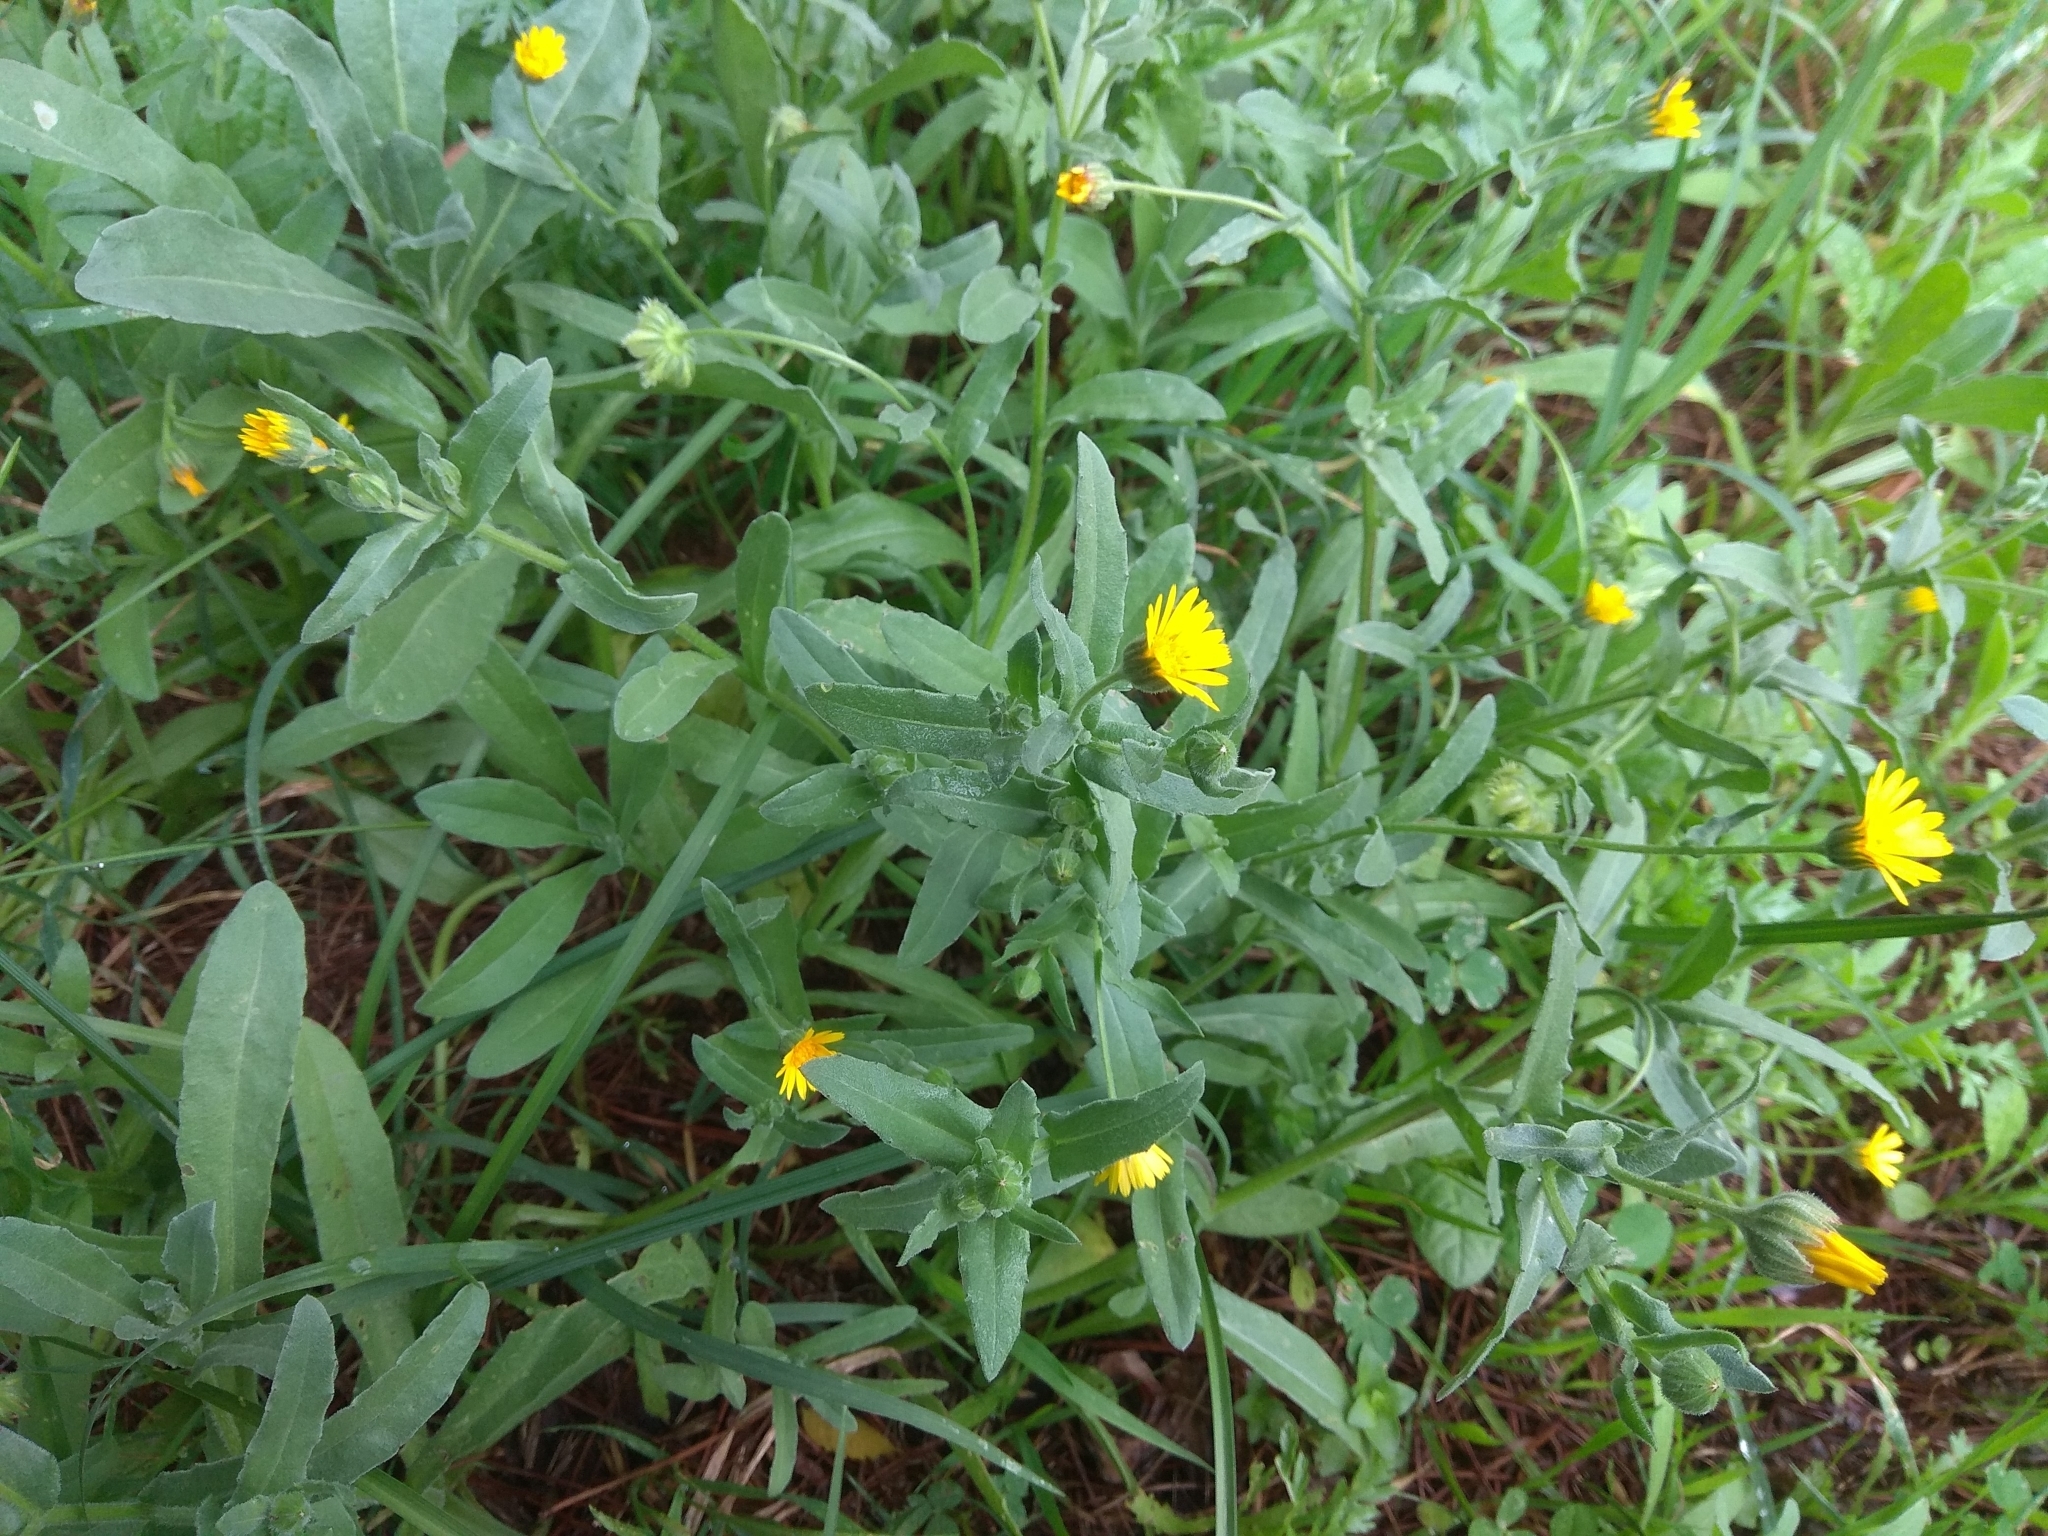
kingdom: Plantae
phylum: Tracheophyta
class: Magnoliopsida
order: Asterales
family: Asteraceae
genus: Calendula
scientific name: Calendula arvensis
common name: Field marigold
